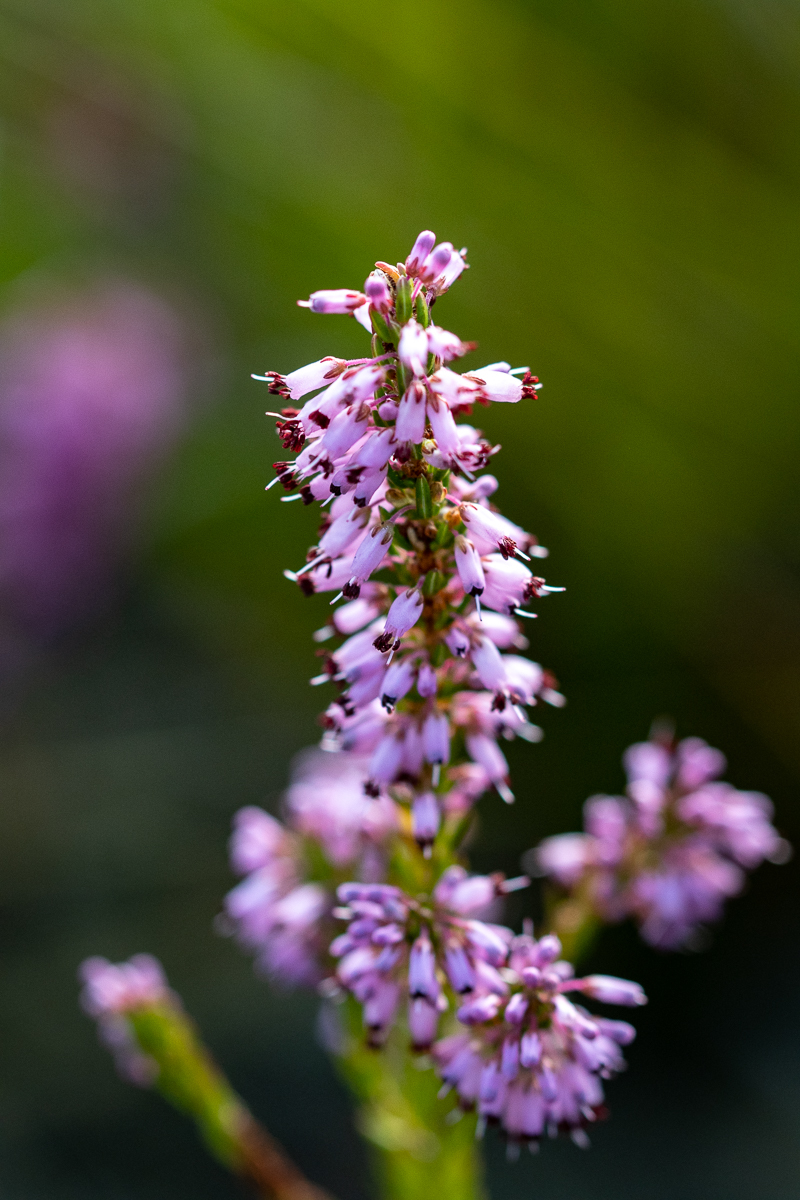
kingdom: Plantae
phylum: Tracheophyta
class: Magnoliopsida
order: Ericales
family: Ericaceae
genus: Erica
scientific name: Erica nudiflora
